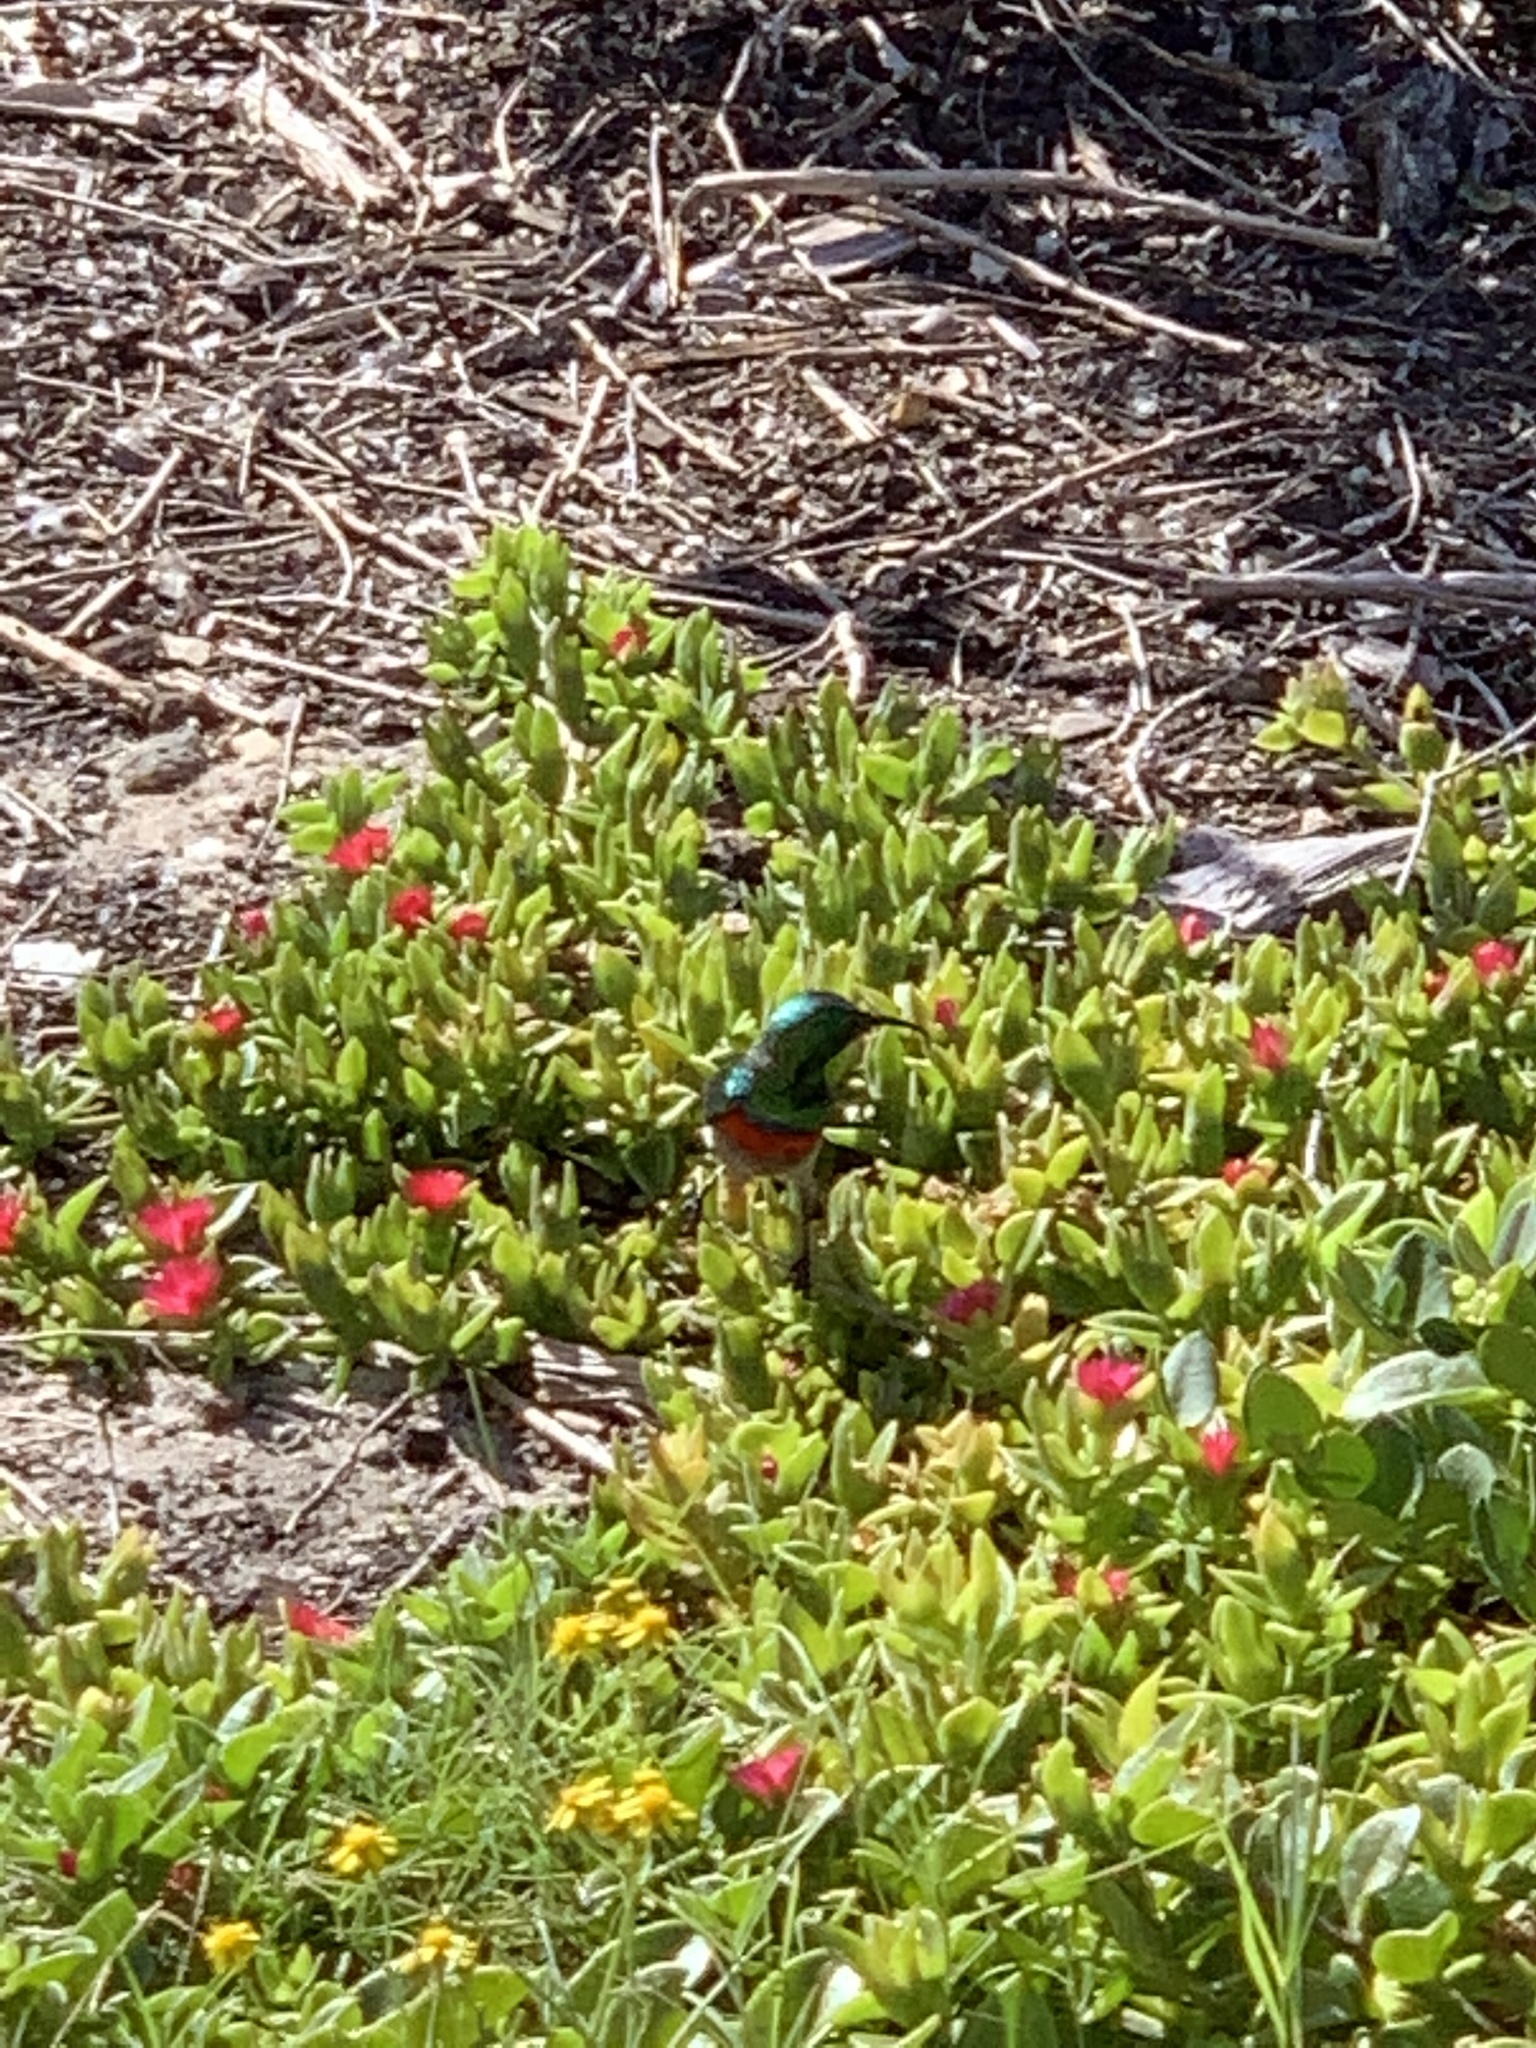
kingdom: Animalia
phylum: Chordata
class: Aves
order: Passeriformes
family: Nectariniidae
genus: Cinnyris
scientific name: Cinnyris chalybeus
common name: Southern double-collared sunbird
